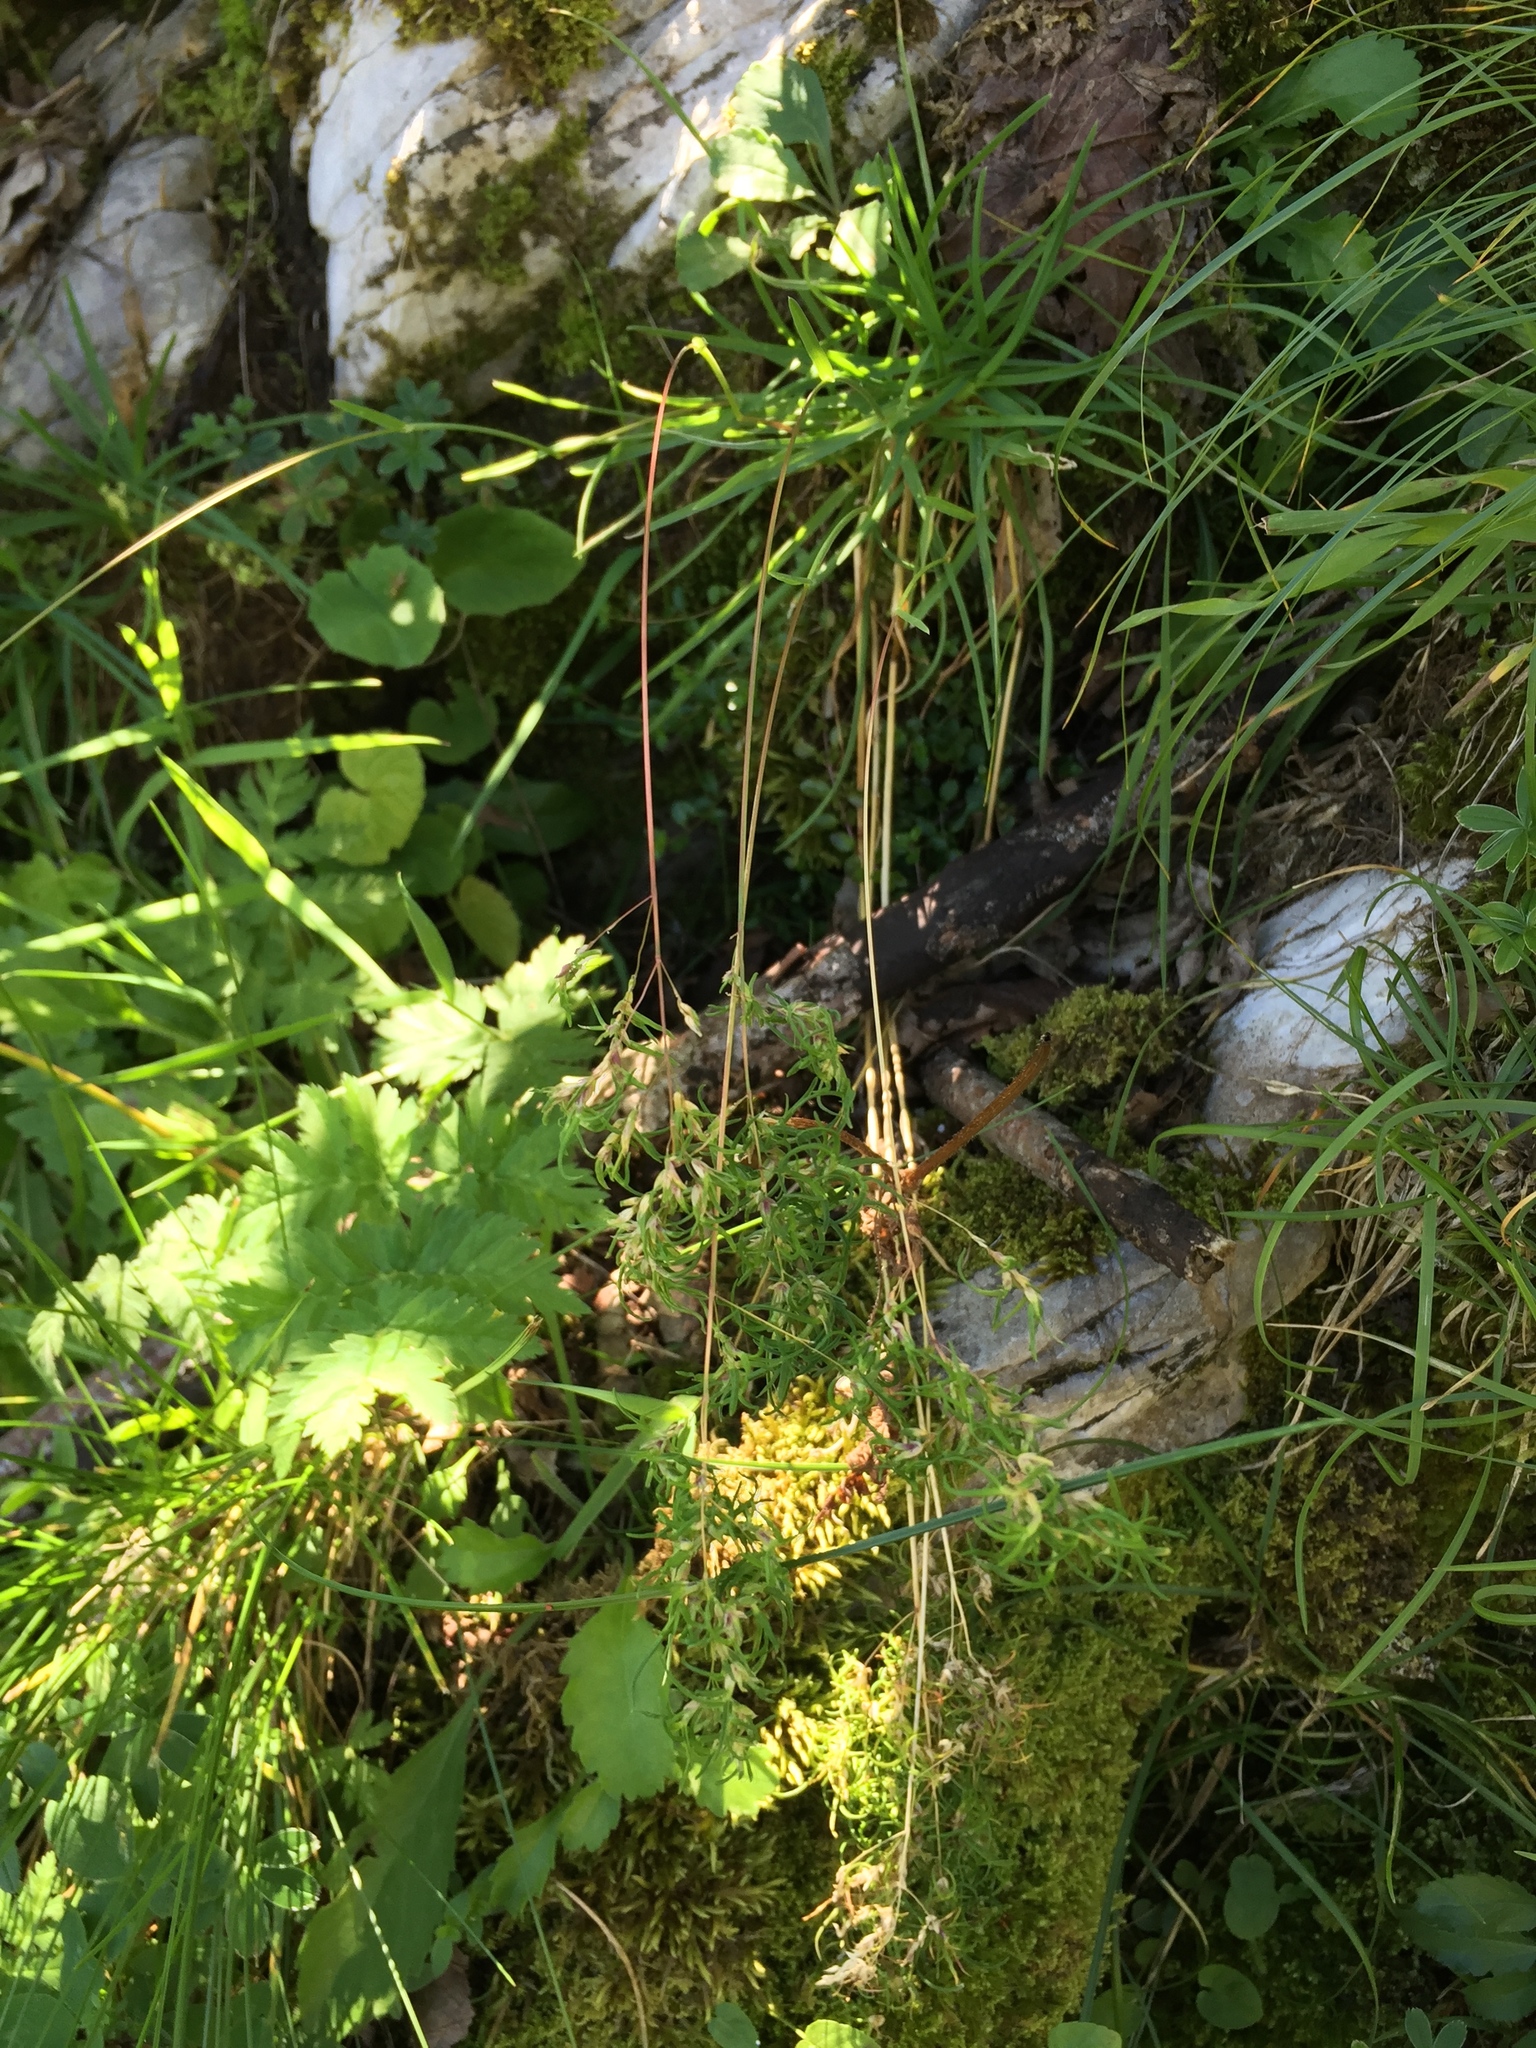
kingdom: Plantae
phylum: Tracheophyta
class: Liliopsida
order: Poales
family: Poaceae
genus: Poa
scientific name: Poa bulbosa
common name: Bulbous bluegrass
